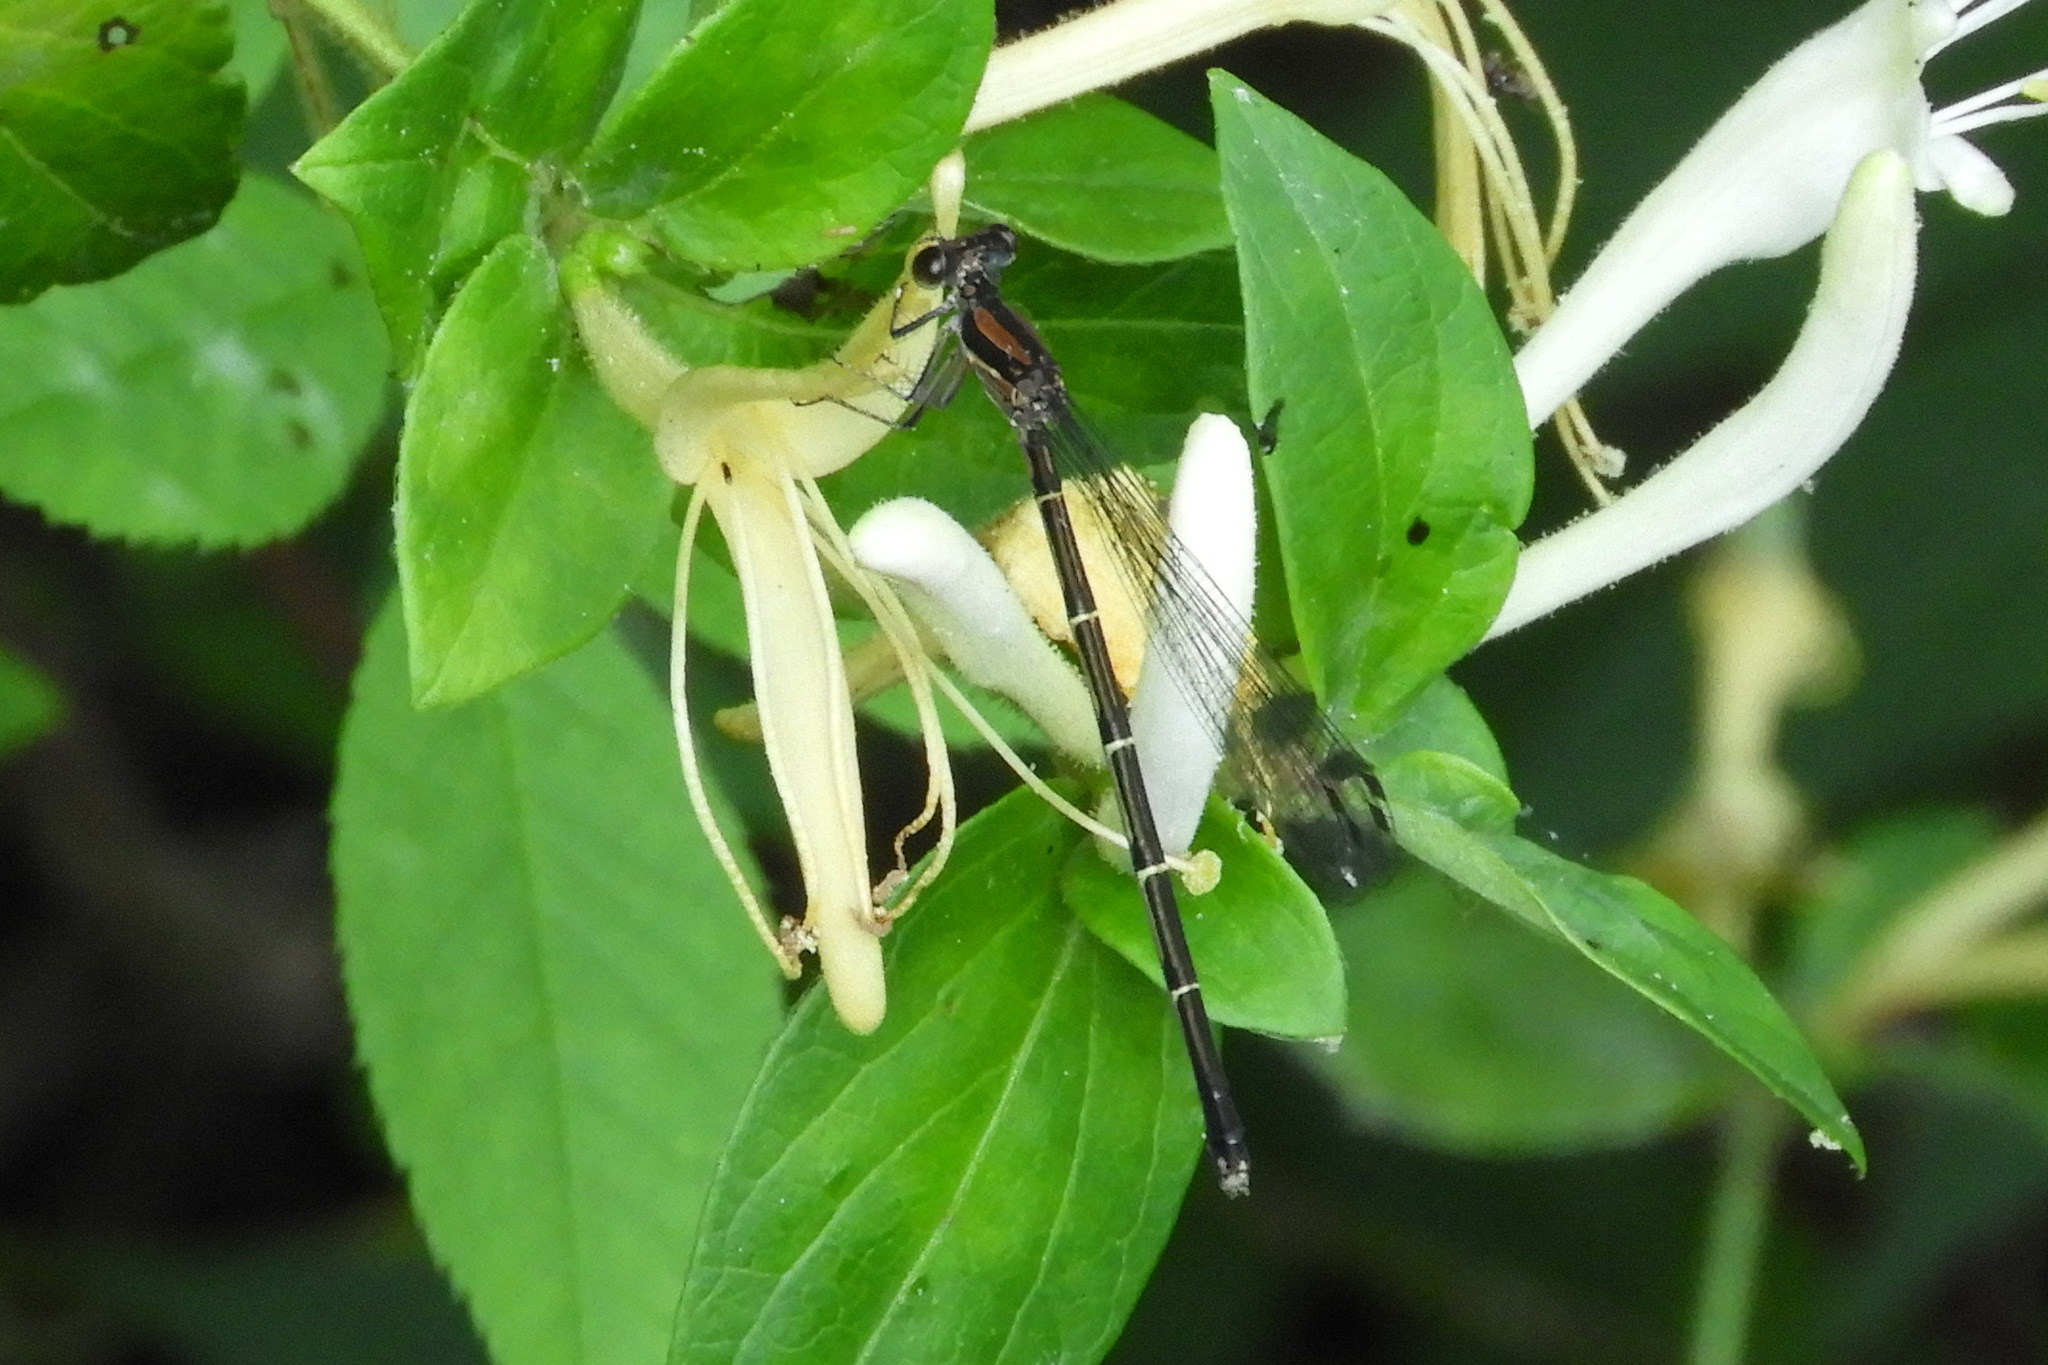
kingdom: Animalia
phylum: Arthropoda
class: Insecta
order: Odonata
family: Coenagrionidae
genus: Argia
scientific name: Argia tibialis
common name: Blue-tipped dancer
